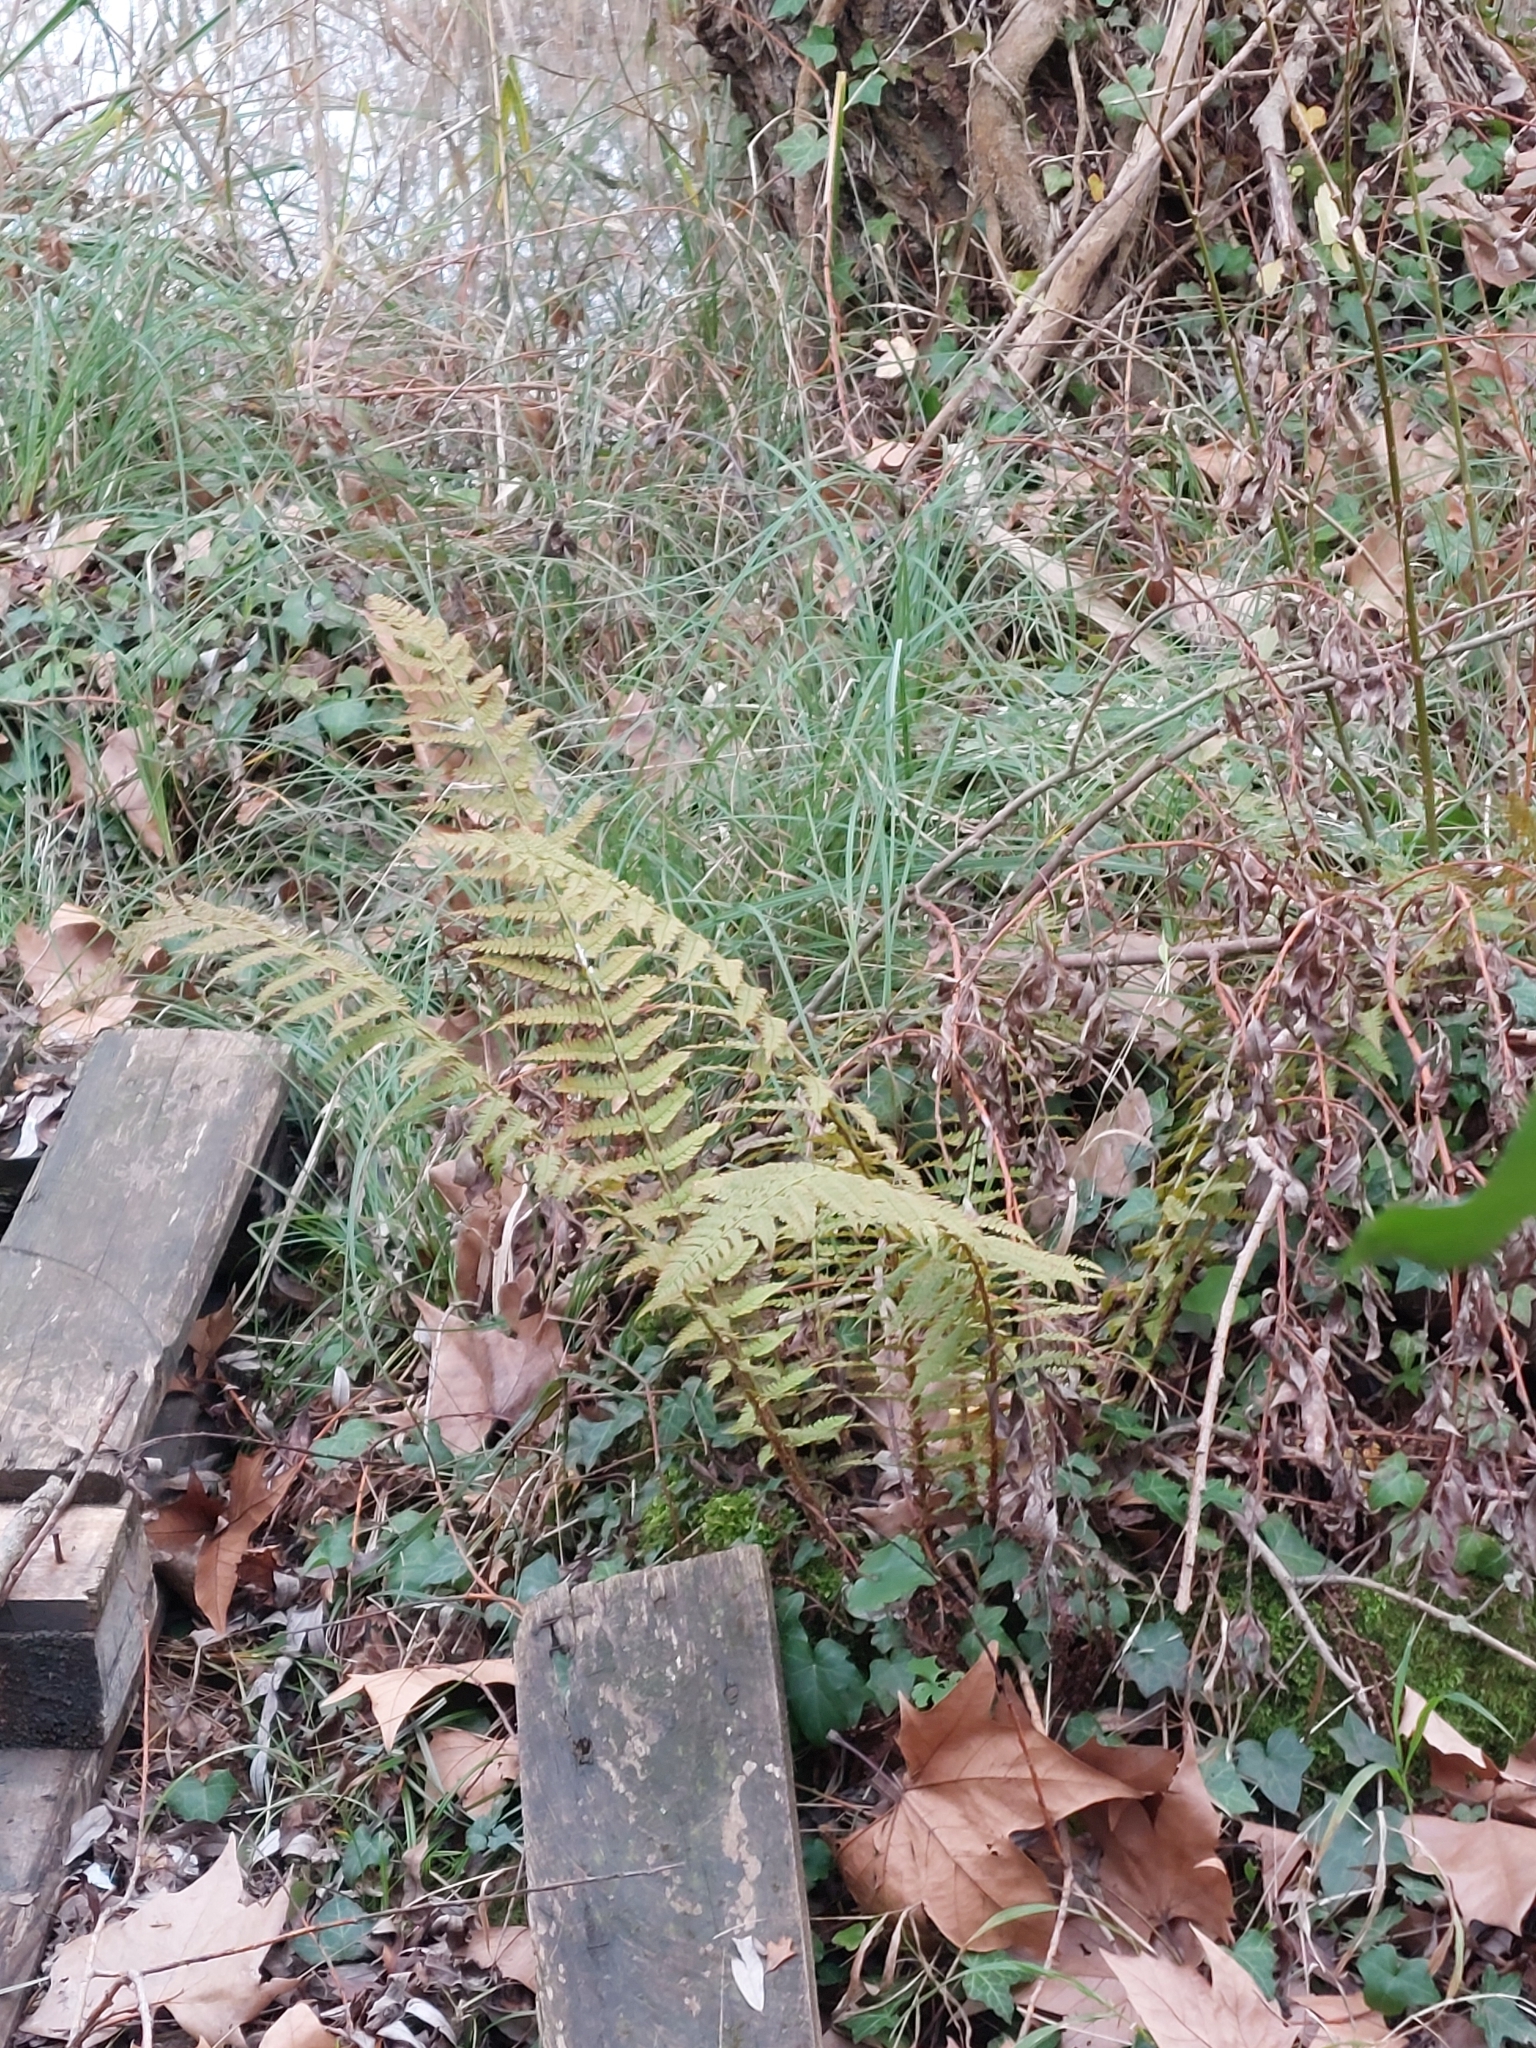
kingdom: Plantae
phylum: Tracheophyta
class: Polypodiopsida
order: Polypodiales
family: Dryopteridaceae
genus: Polystichum
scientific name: Polystichum setiferum
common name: Soft shield-fern
